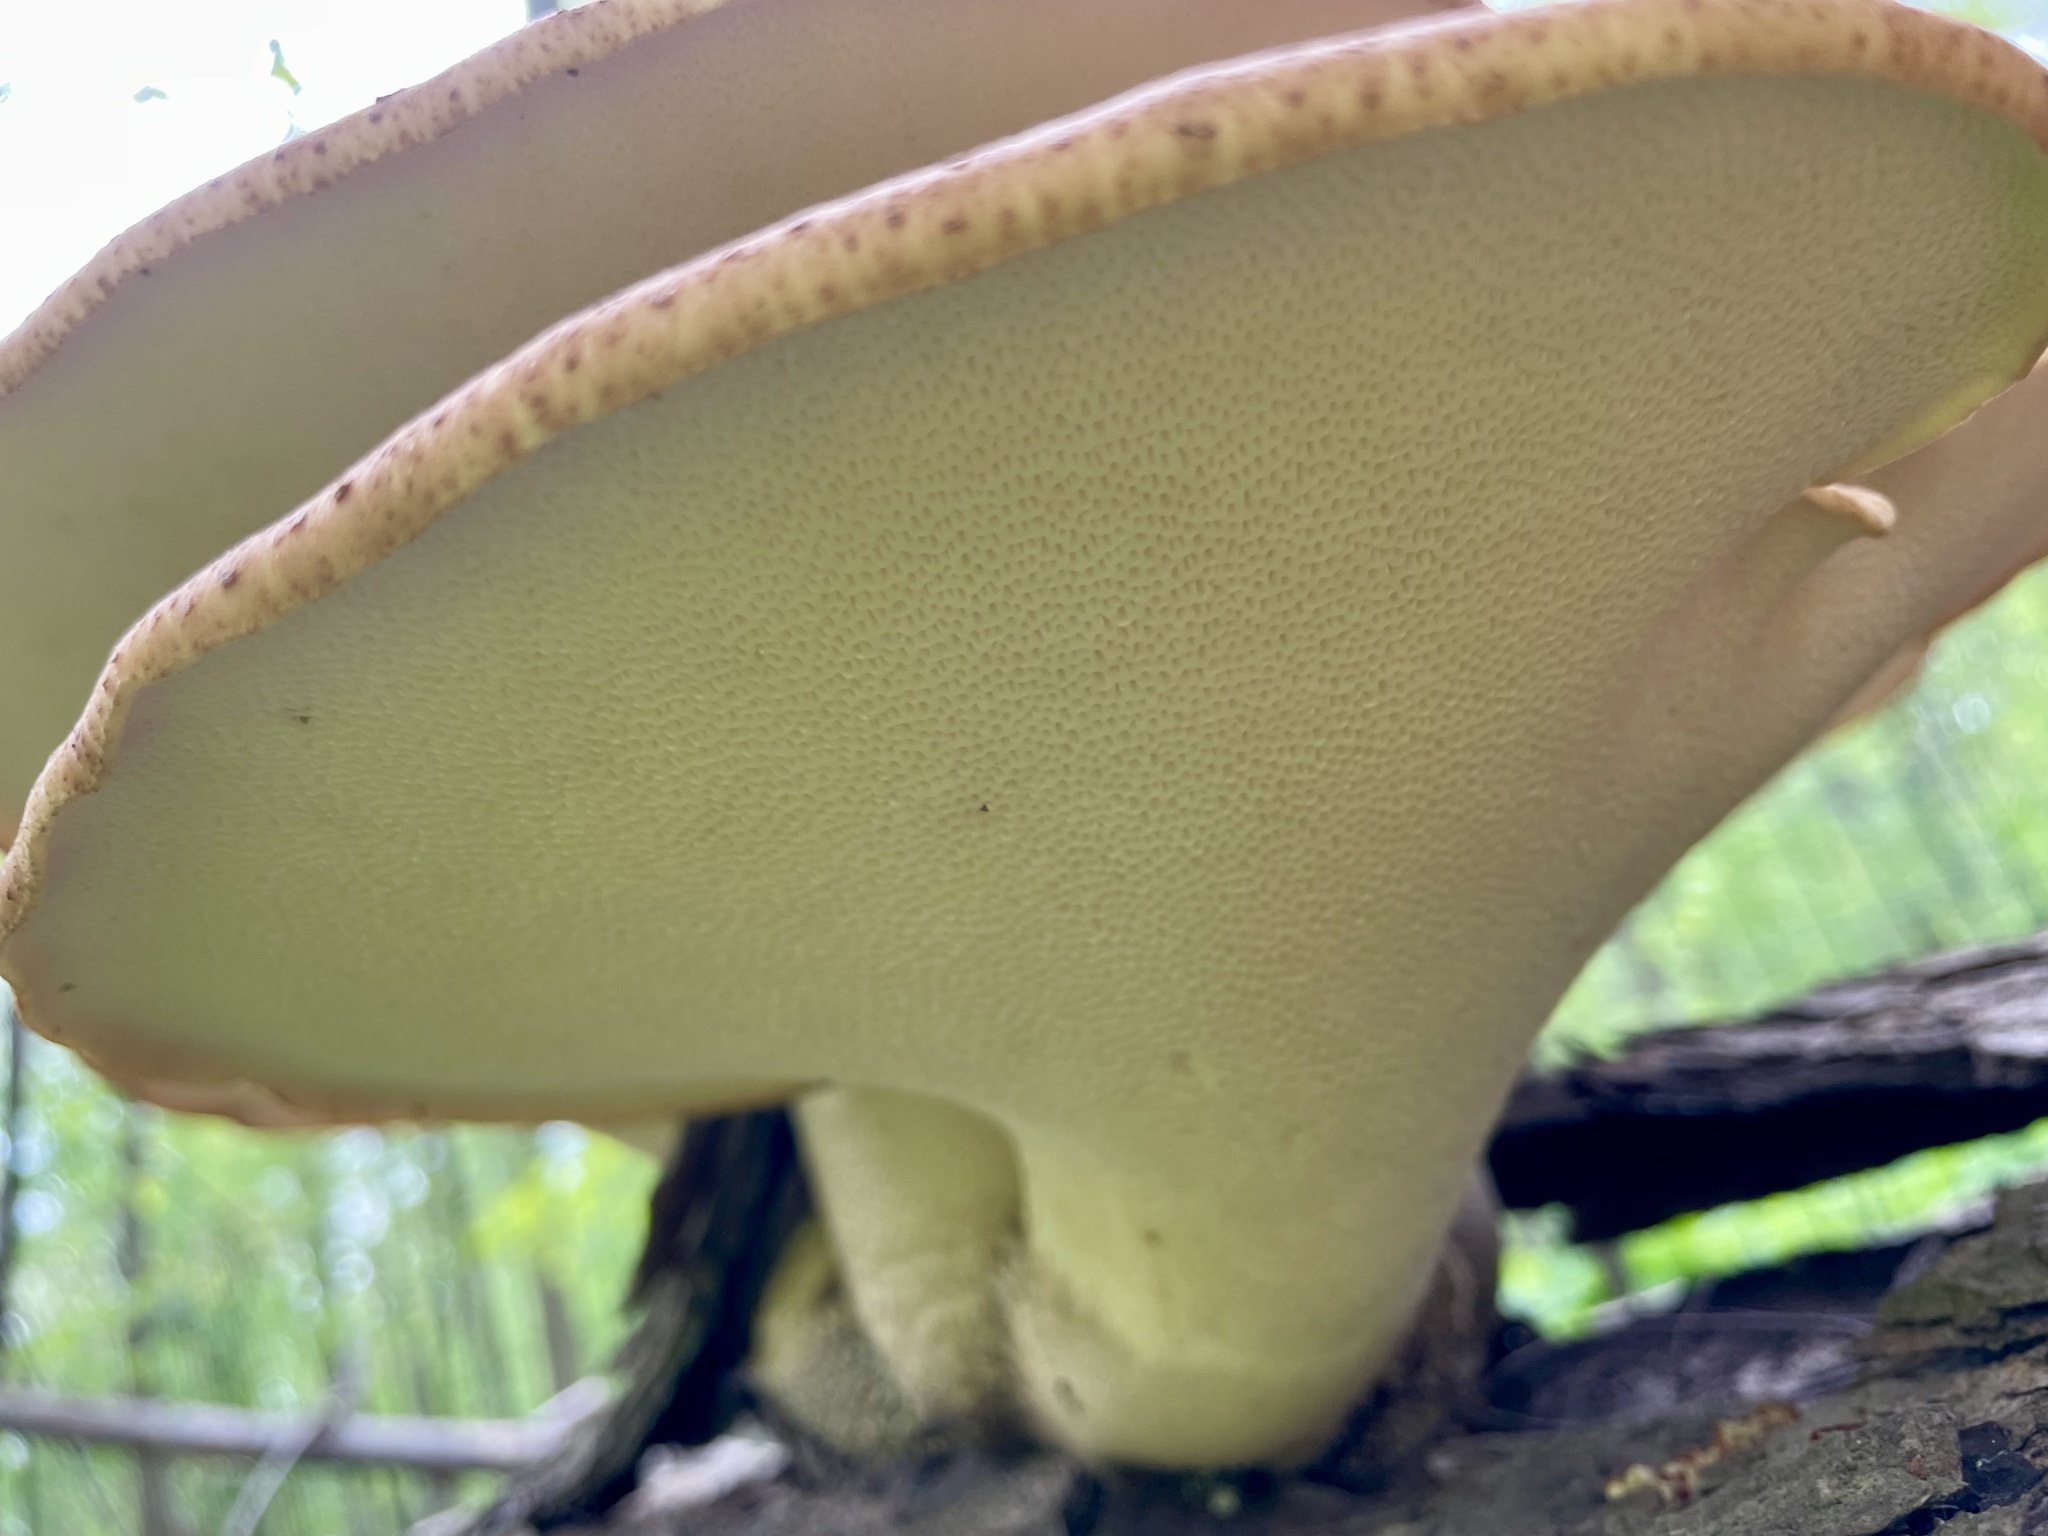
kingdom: Fungi
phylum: Basidiomycota
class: Agaricomycetes
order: Polyporales
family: Polyporaceae
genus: Cerioporus
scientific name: Cerioporus squamosus
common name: Dryad's saddle
